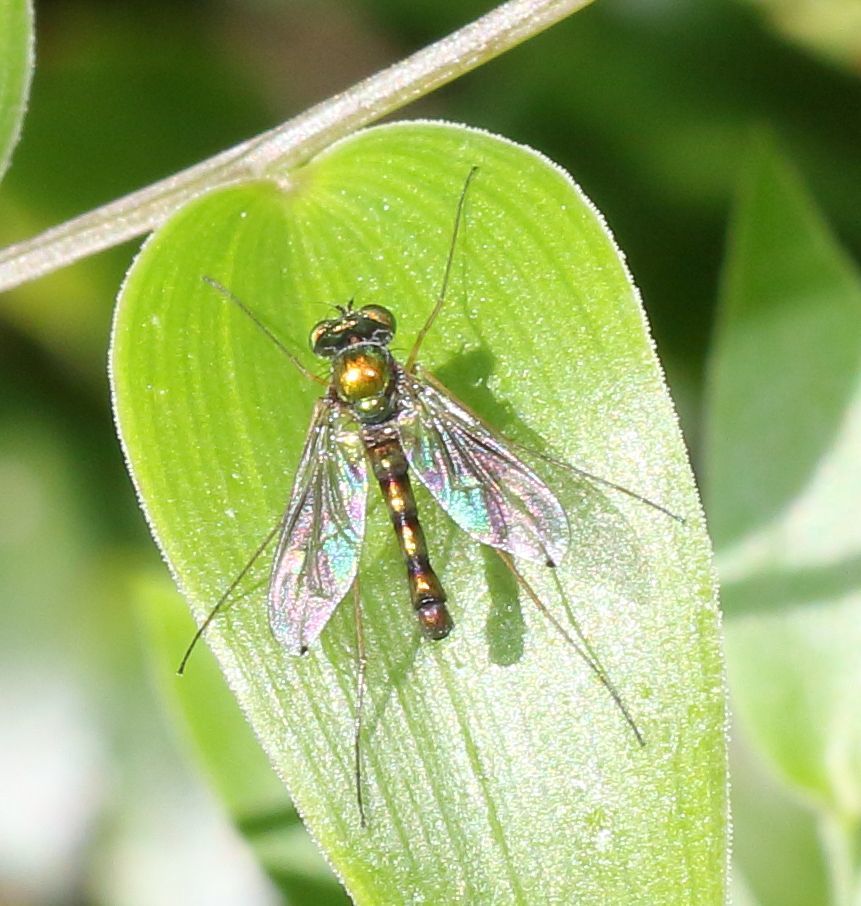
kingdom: Animalia
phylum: Arthropoda
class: Insecta
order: Diptera
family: Dolichopodidae
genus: Amblypsilopus
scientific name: Amblypsilopus stuckenbergorum
